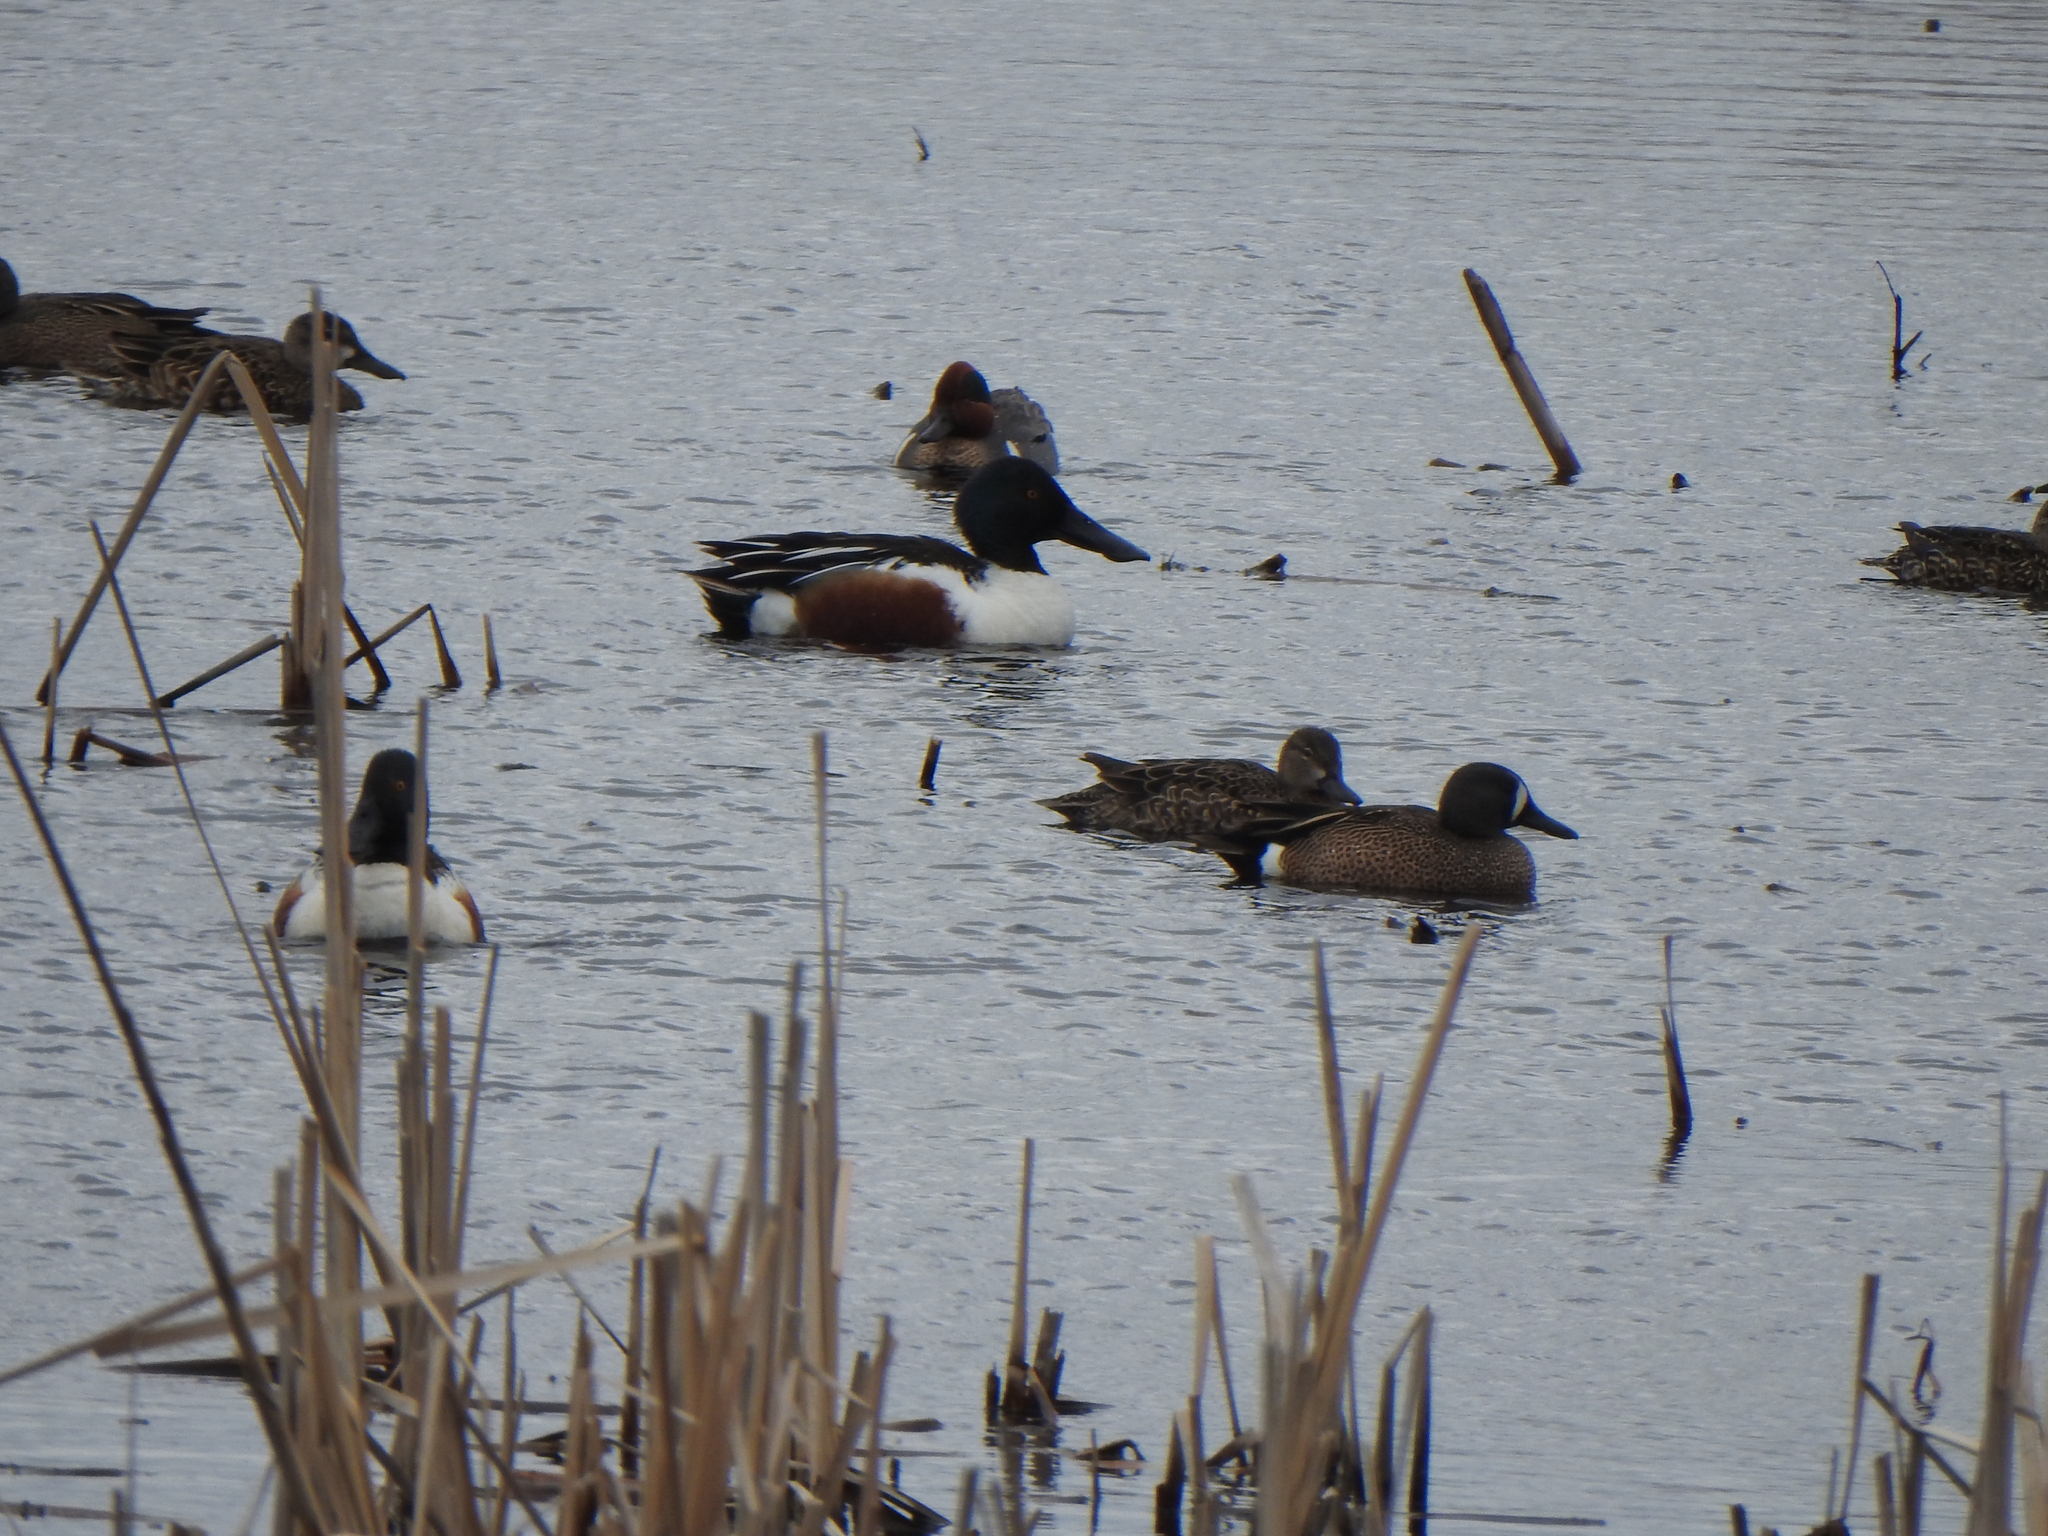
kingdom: Animalia
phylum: Chordata
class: Aves
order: Anseriformes
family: Anatidae
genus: Spatula
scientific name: Spatula clypeata
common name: Northern shoveler
